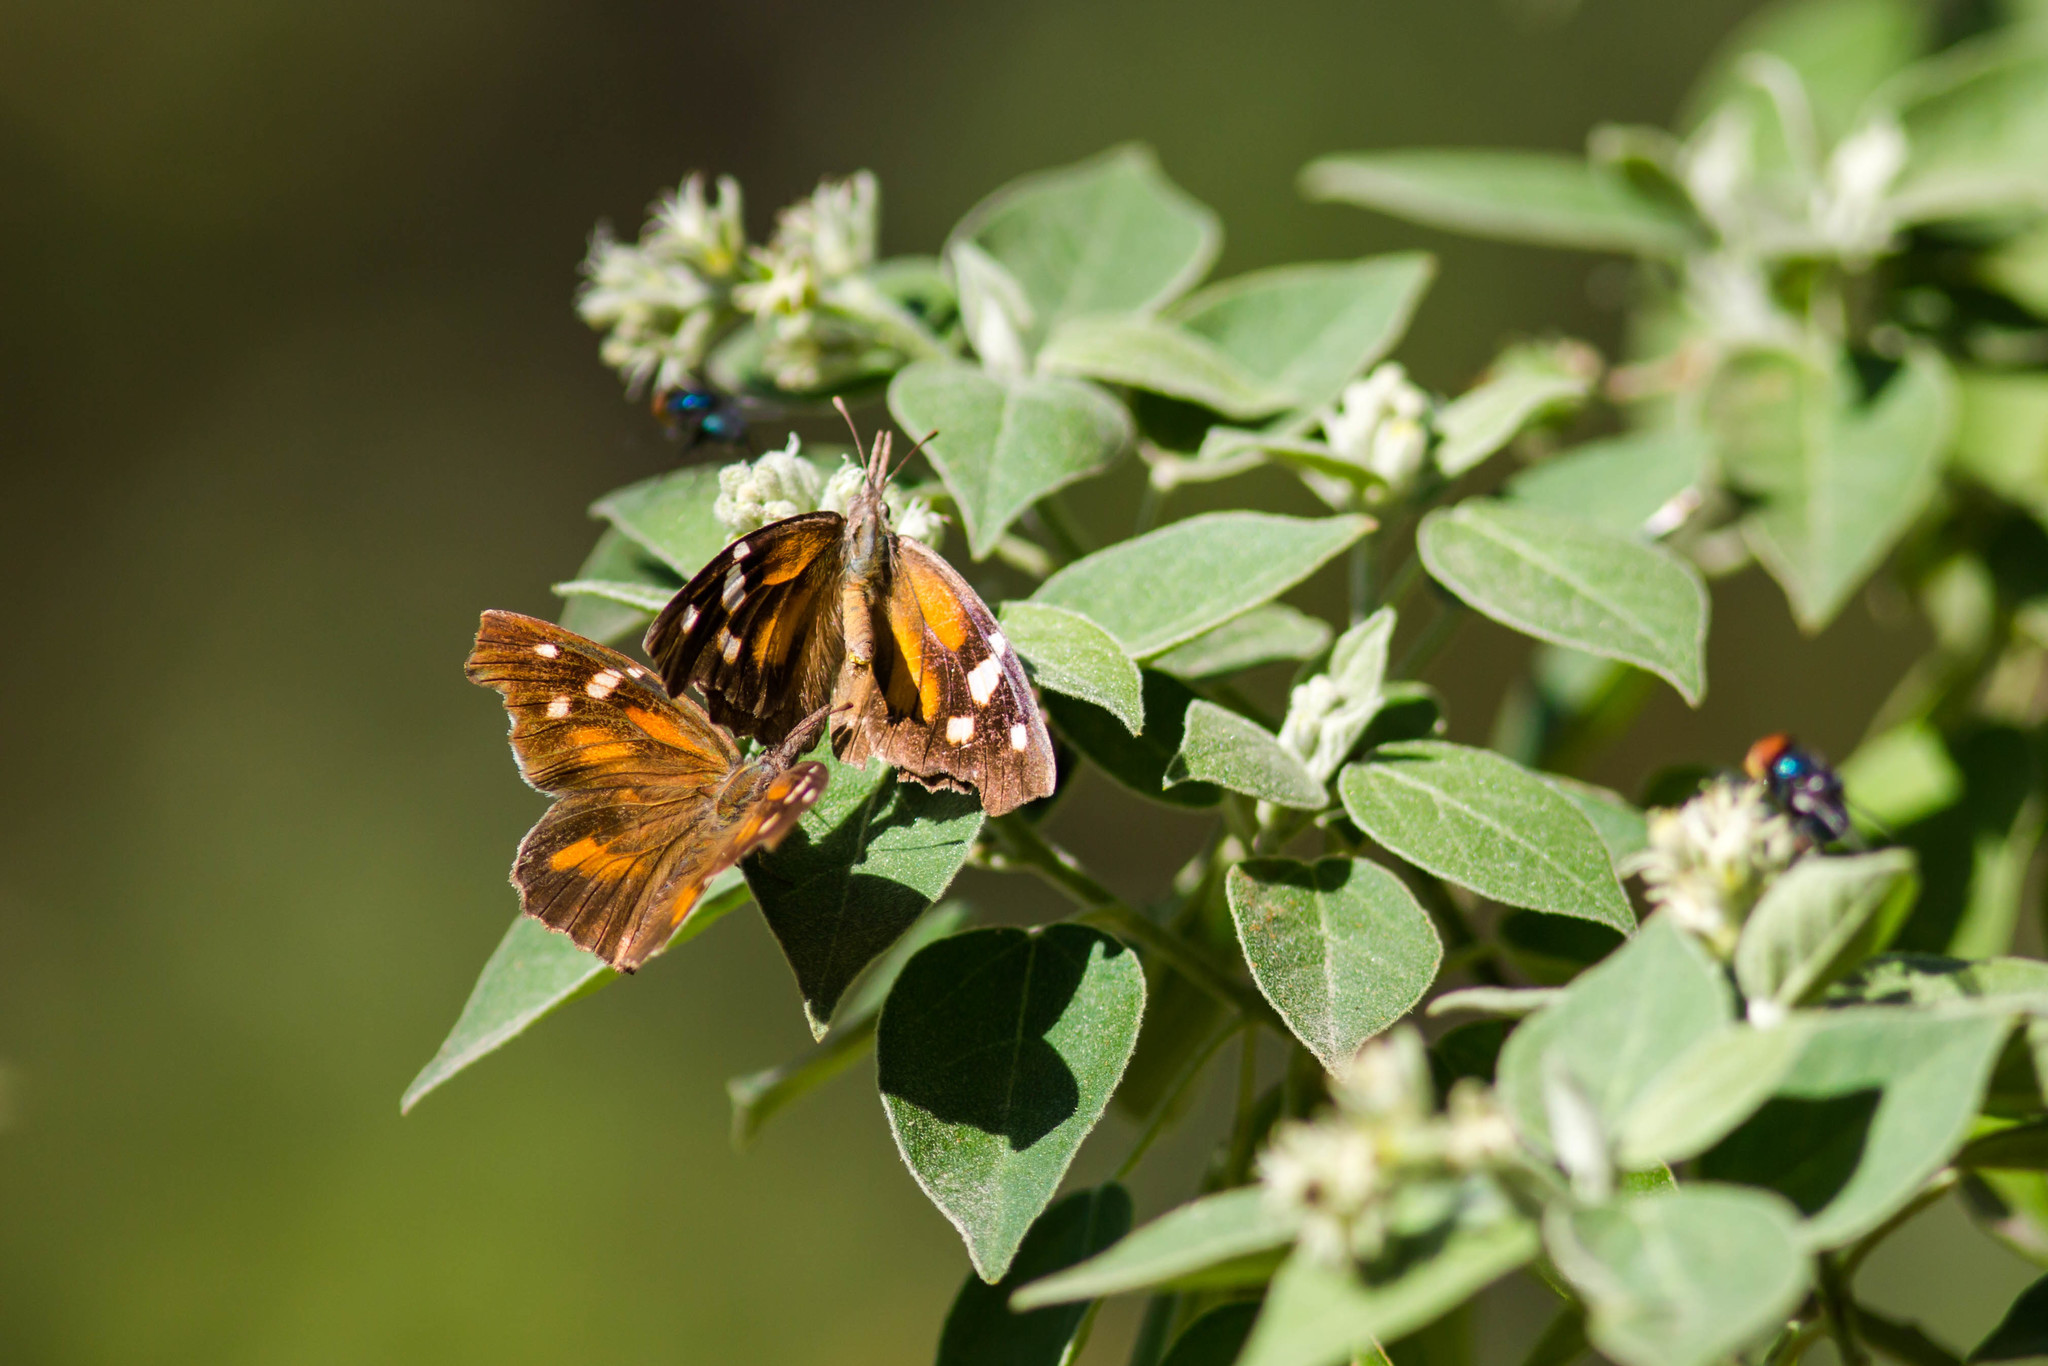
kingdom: Animalia
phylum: Arthropoda
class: Insecta
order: Lepidoptera
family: Nymphalidae
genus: Libytheana
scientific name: Libytheana carinenta
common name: American snout
